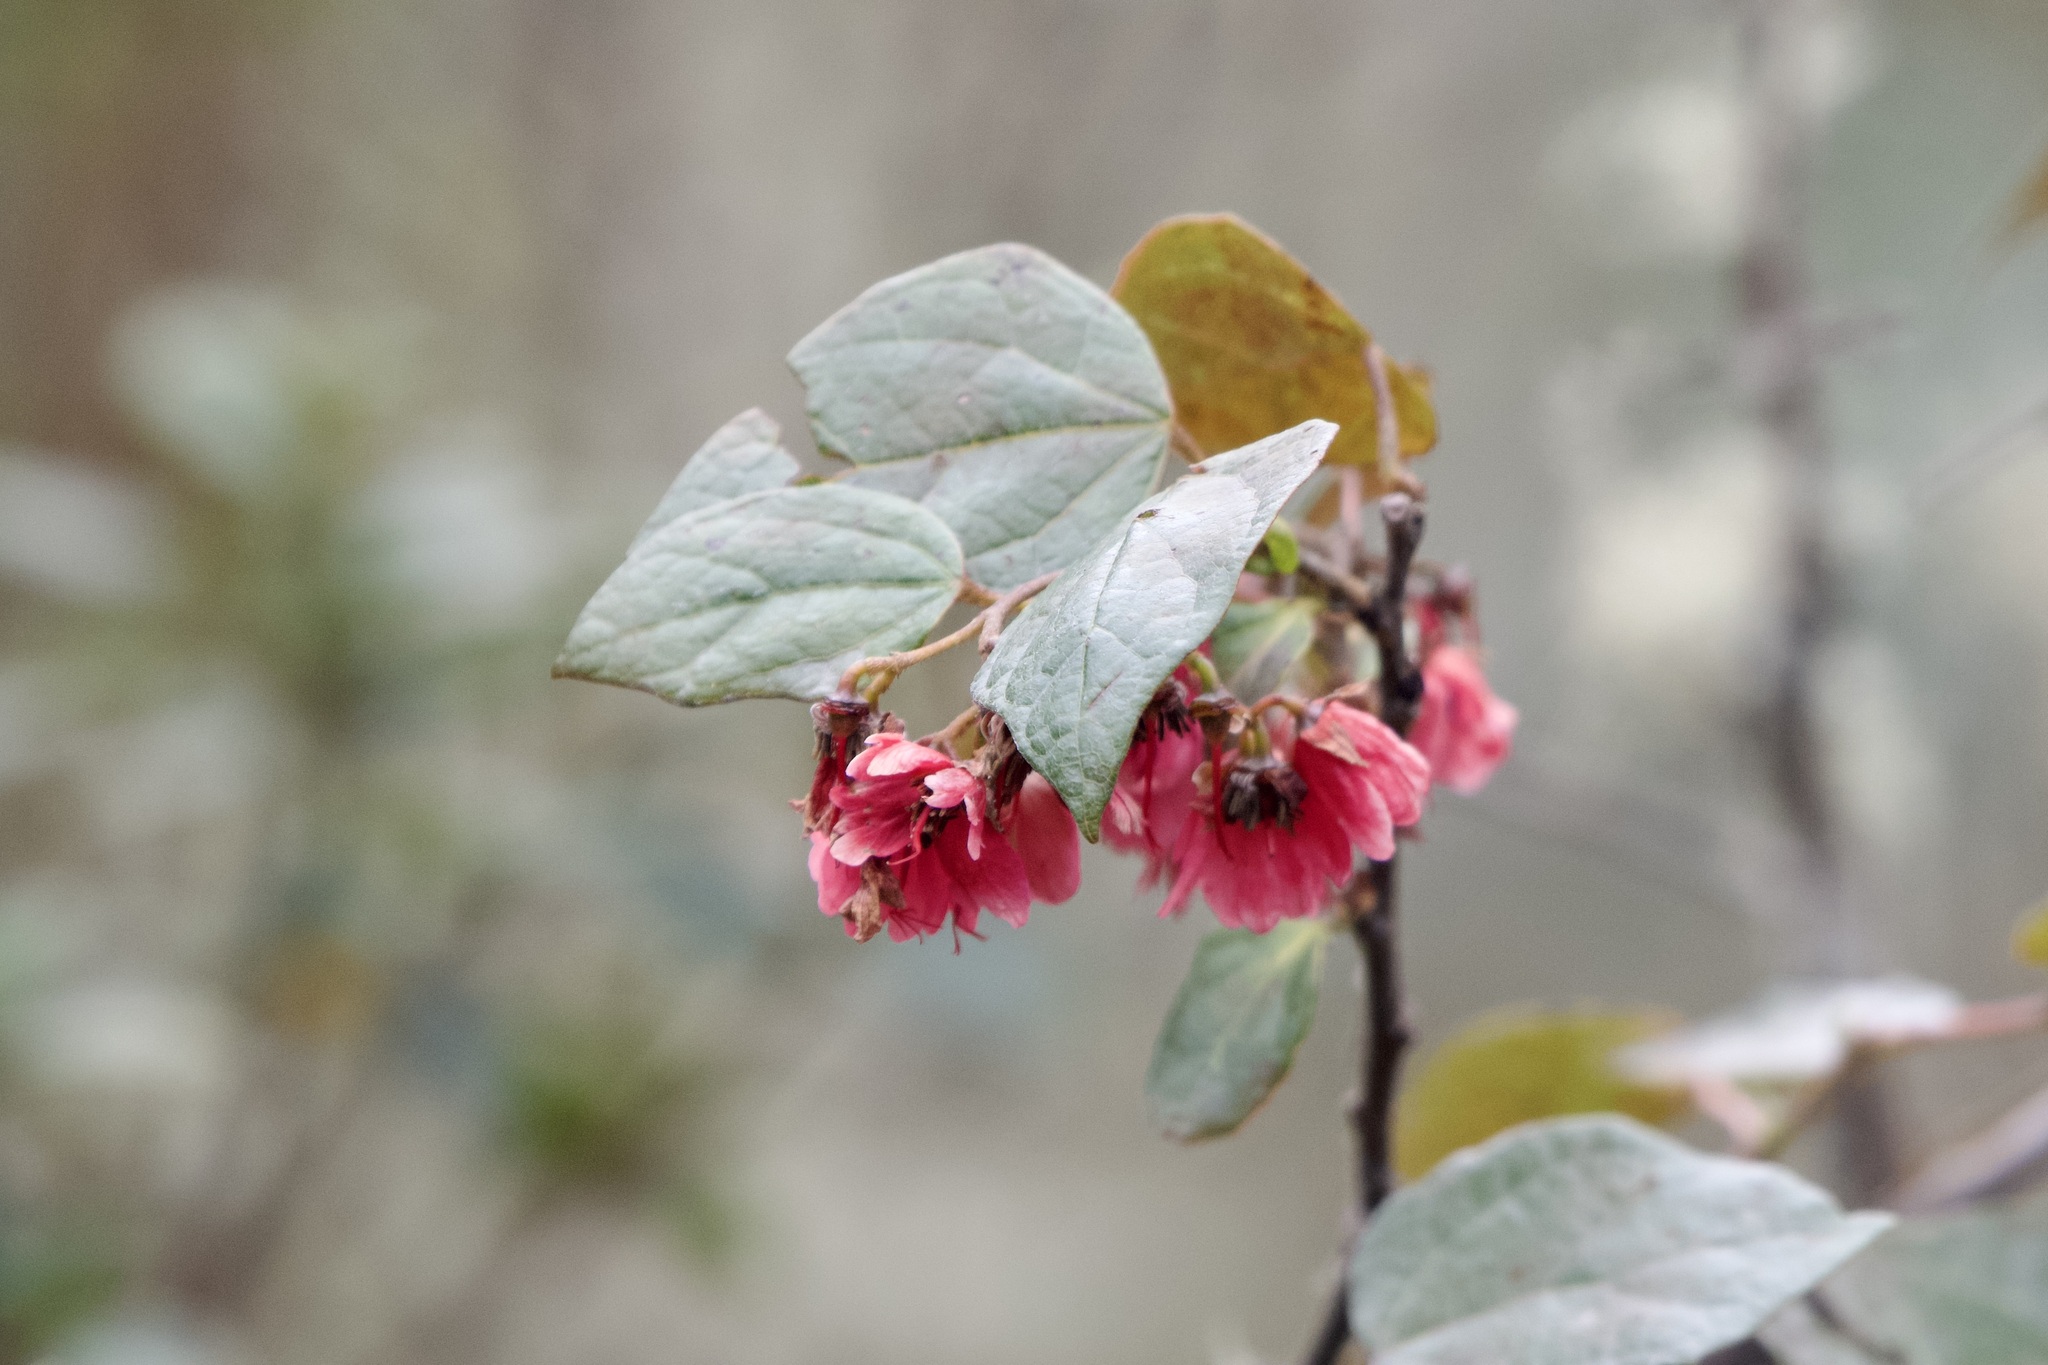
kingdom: Plantae
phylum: Tracheophyta
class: Magnoliopsida
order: Oxalidales
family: Elaeocarpaceae
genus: Vallea
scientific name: Vallea stipularis
